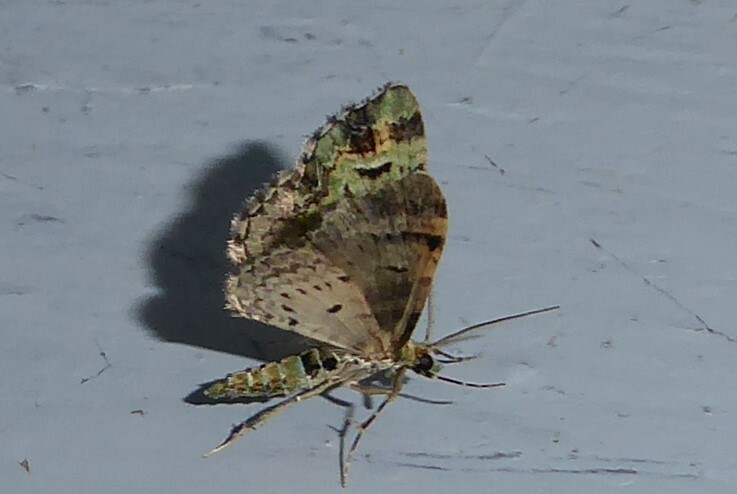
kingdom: Animalia
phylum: Arthropoda
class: Insecta
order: Lepidoptera
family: Geometridae
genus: Pasiphila
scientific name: Pasiphila bilineolata
